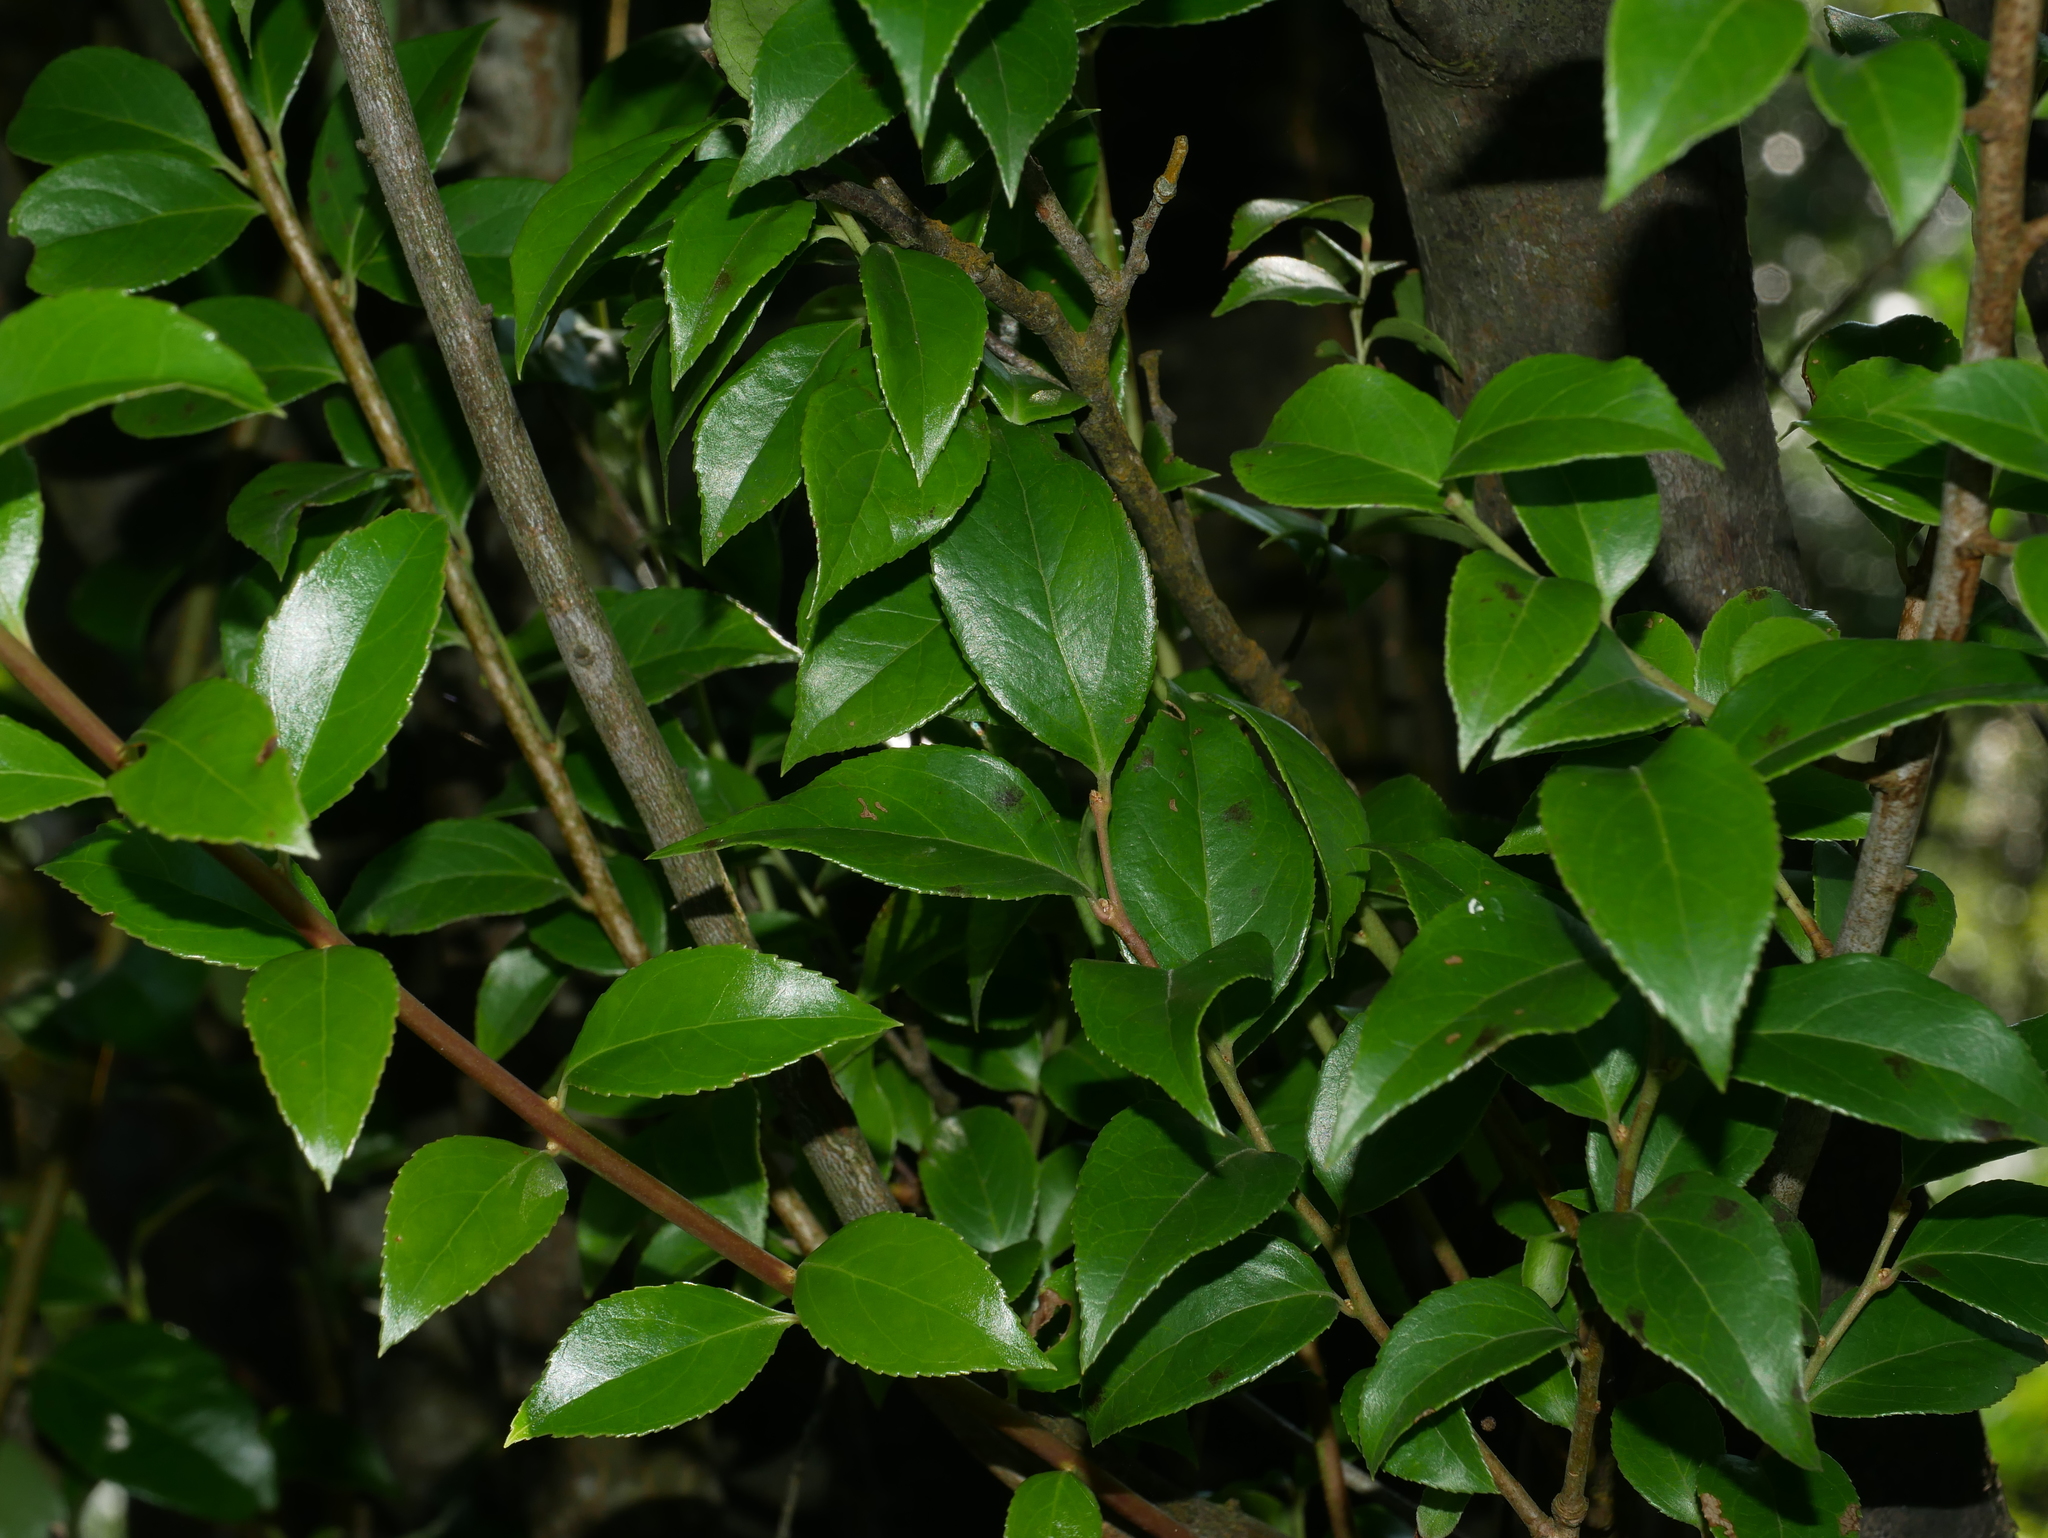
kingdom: Plantae
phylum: Tracheophyta
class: Magnoliopsida
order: Ericales
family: Ericaceae
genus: Vaccinium
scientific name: Vaccinium bracteatum
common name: Sea bilberry
